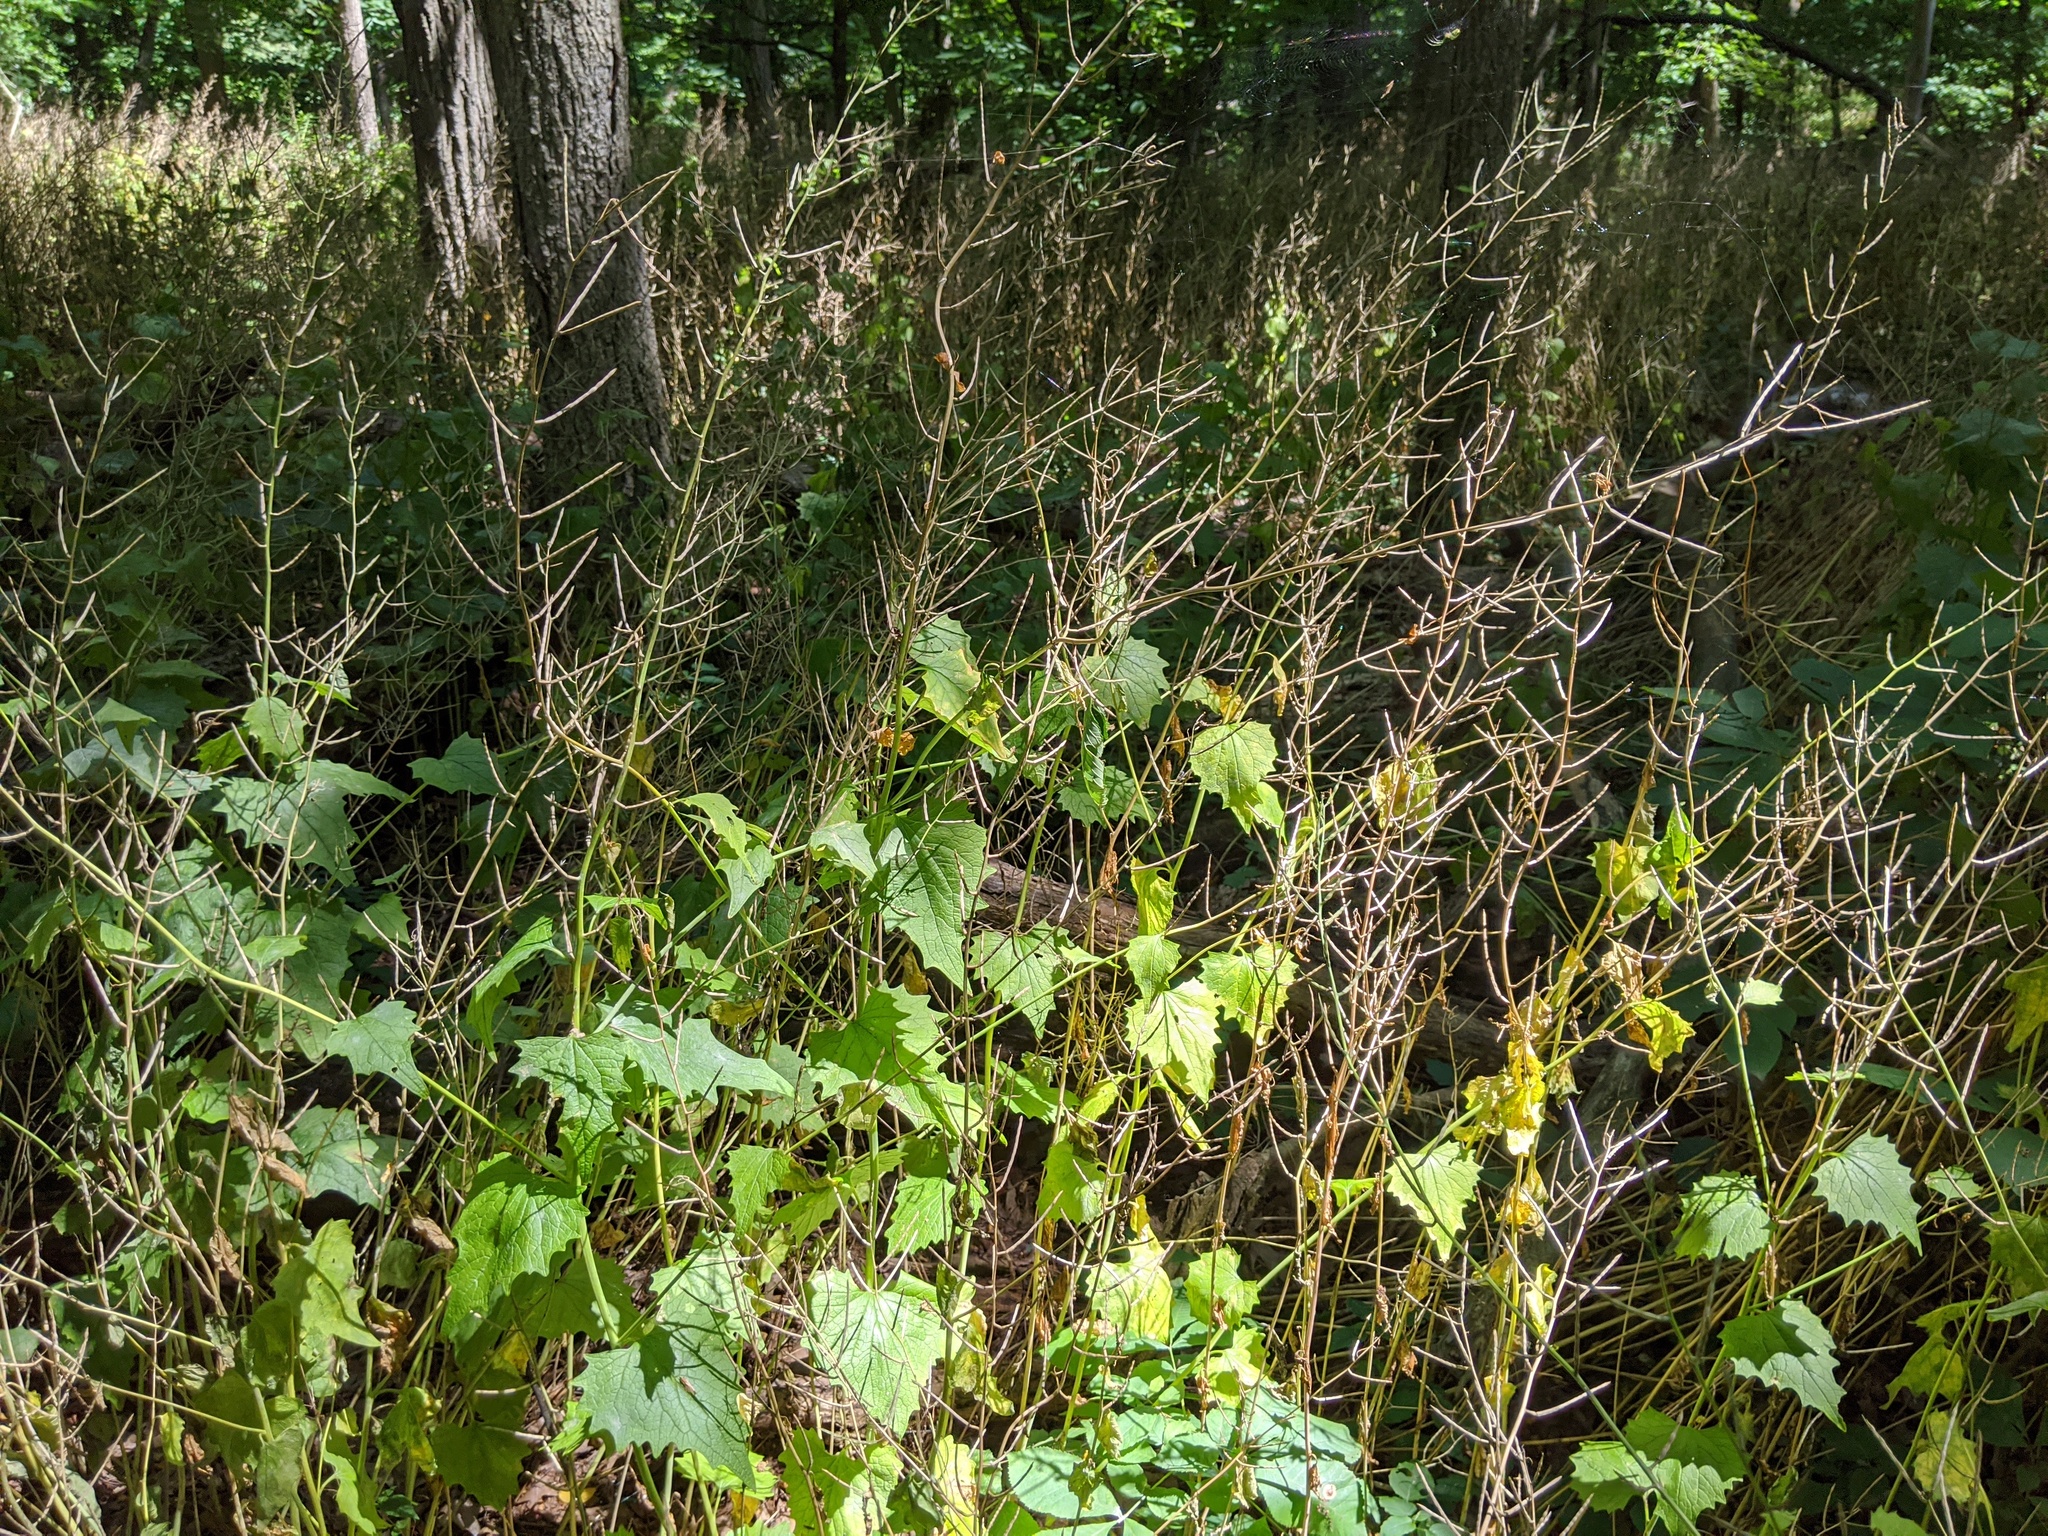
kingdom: Plantae
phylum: Tracheophyta
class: Magnoliopsida
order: Brassicales
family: Brassicaceae
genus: Alliaria
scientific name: Alliaria petiolata
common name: Garlic mustard
